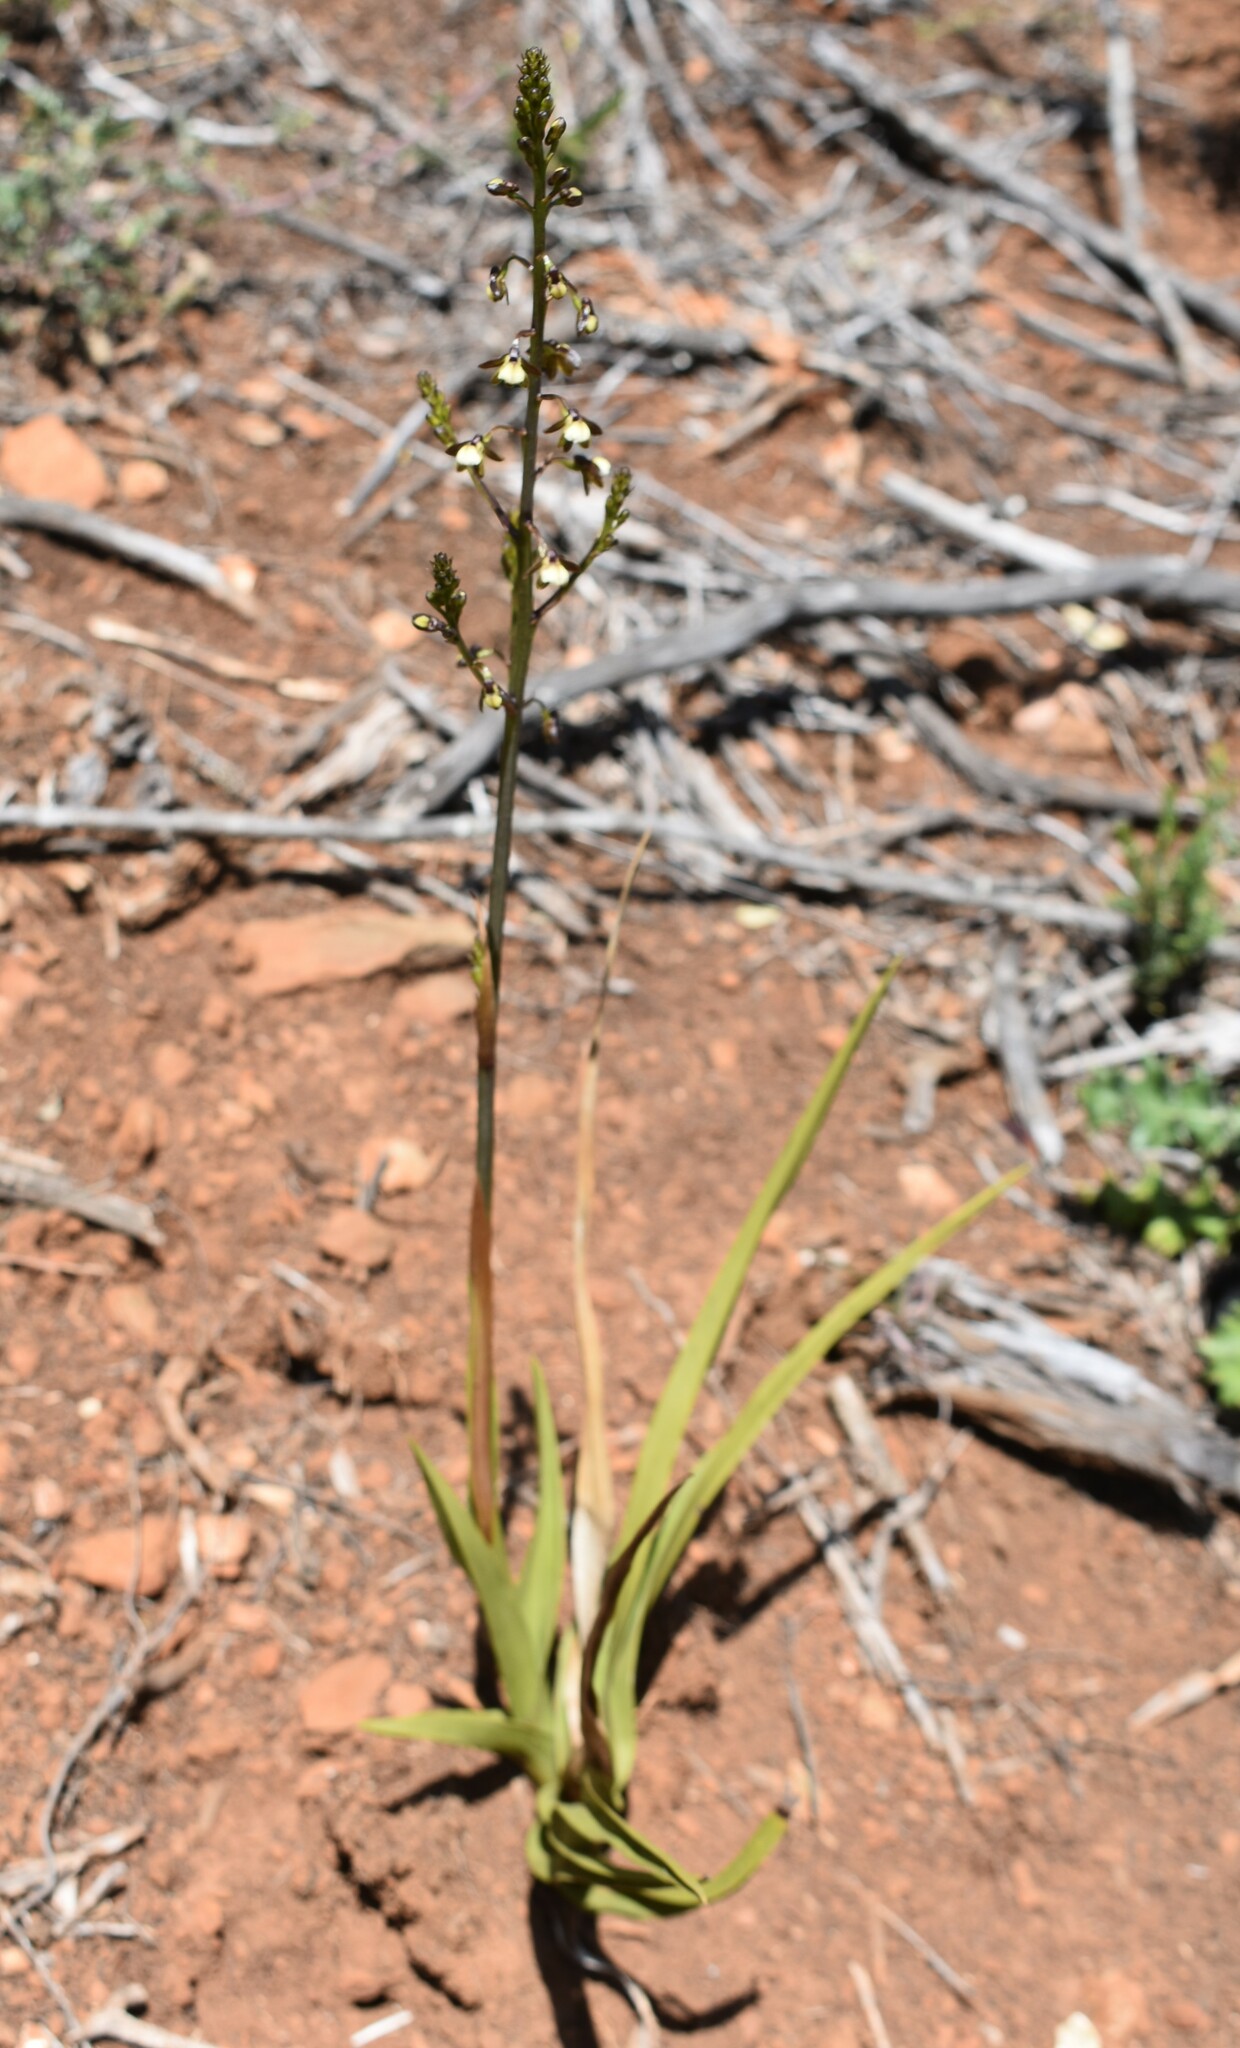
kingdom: Plantae
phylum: Tracheophyta
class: Liliopsida
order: Asparagales
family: Orchidaceae
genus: Eulophia
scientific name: Eulophia cochlearis
